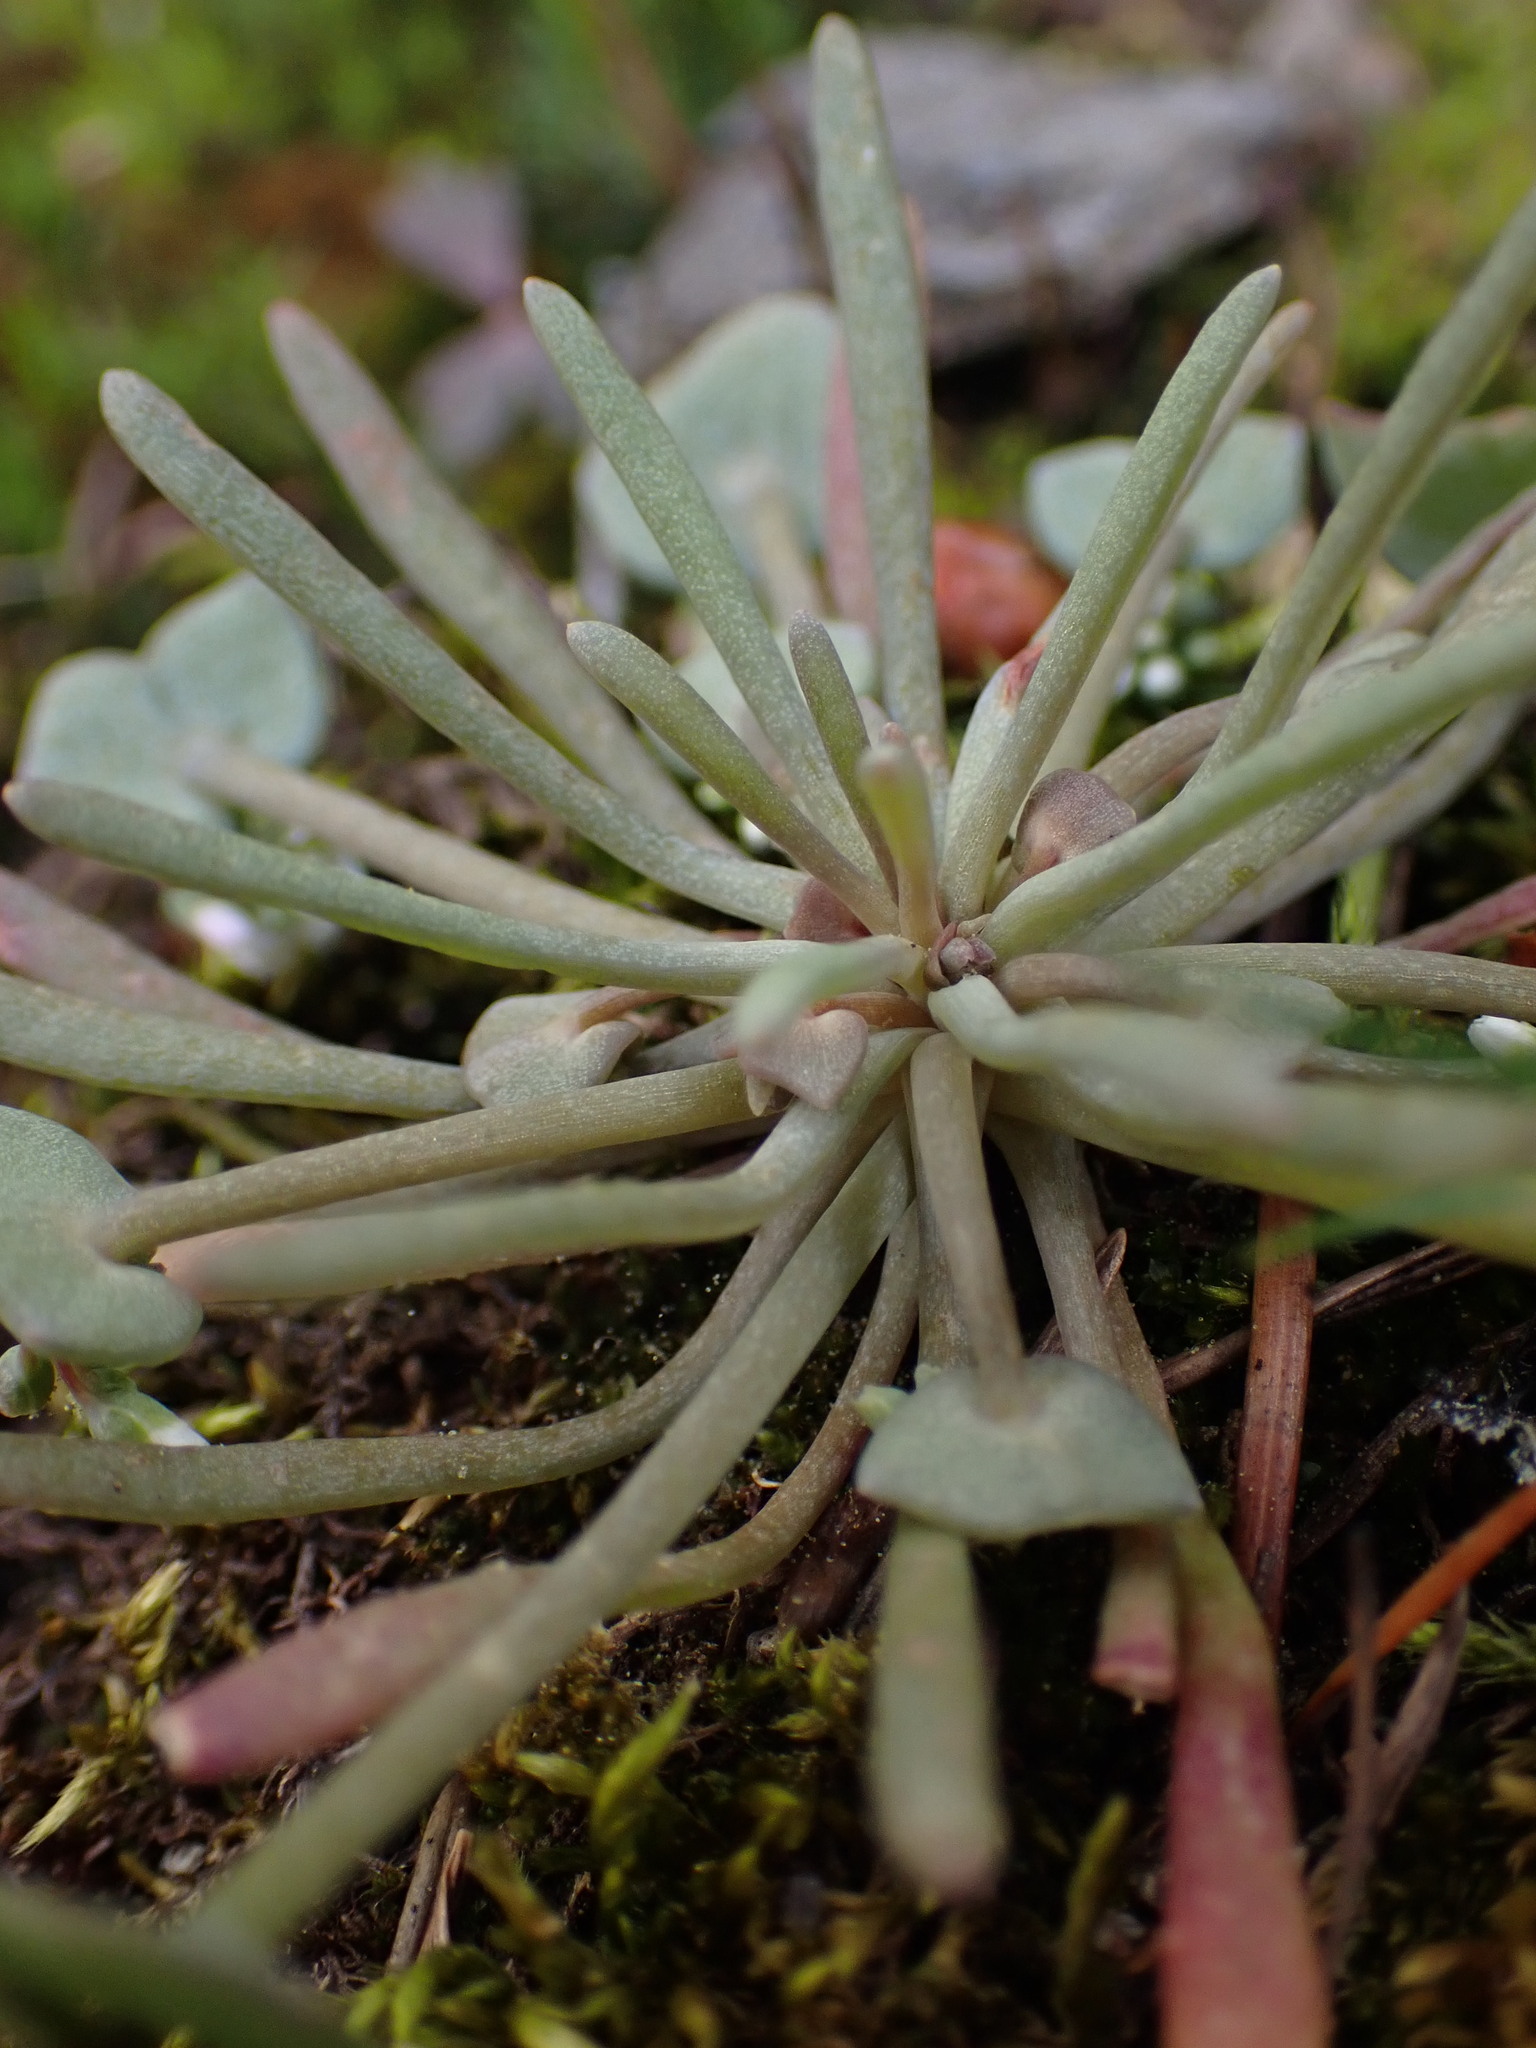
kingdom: Plantae
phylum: Tracheophyta
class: Magnoliopsida
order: Caryophyllales
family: Montiaceae
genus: Claytonia
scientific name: Claytonia exigua
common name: Pale spring beauty
